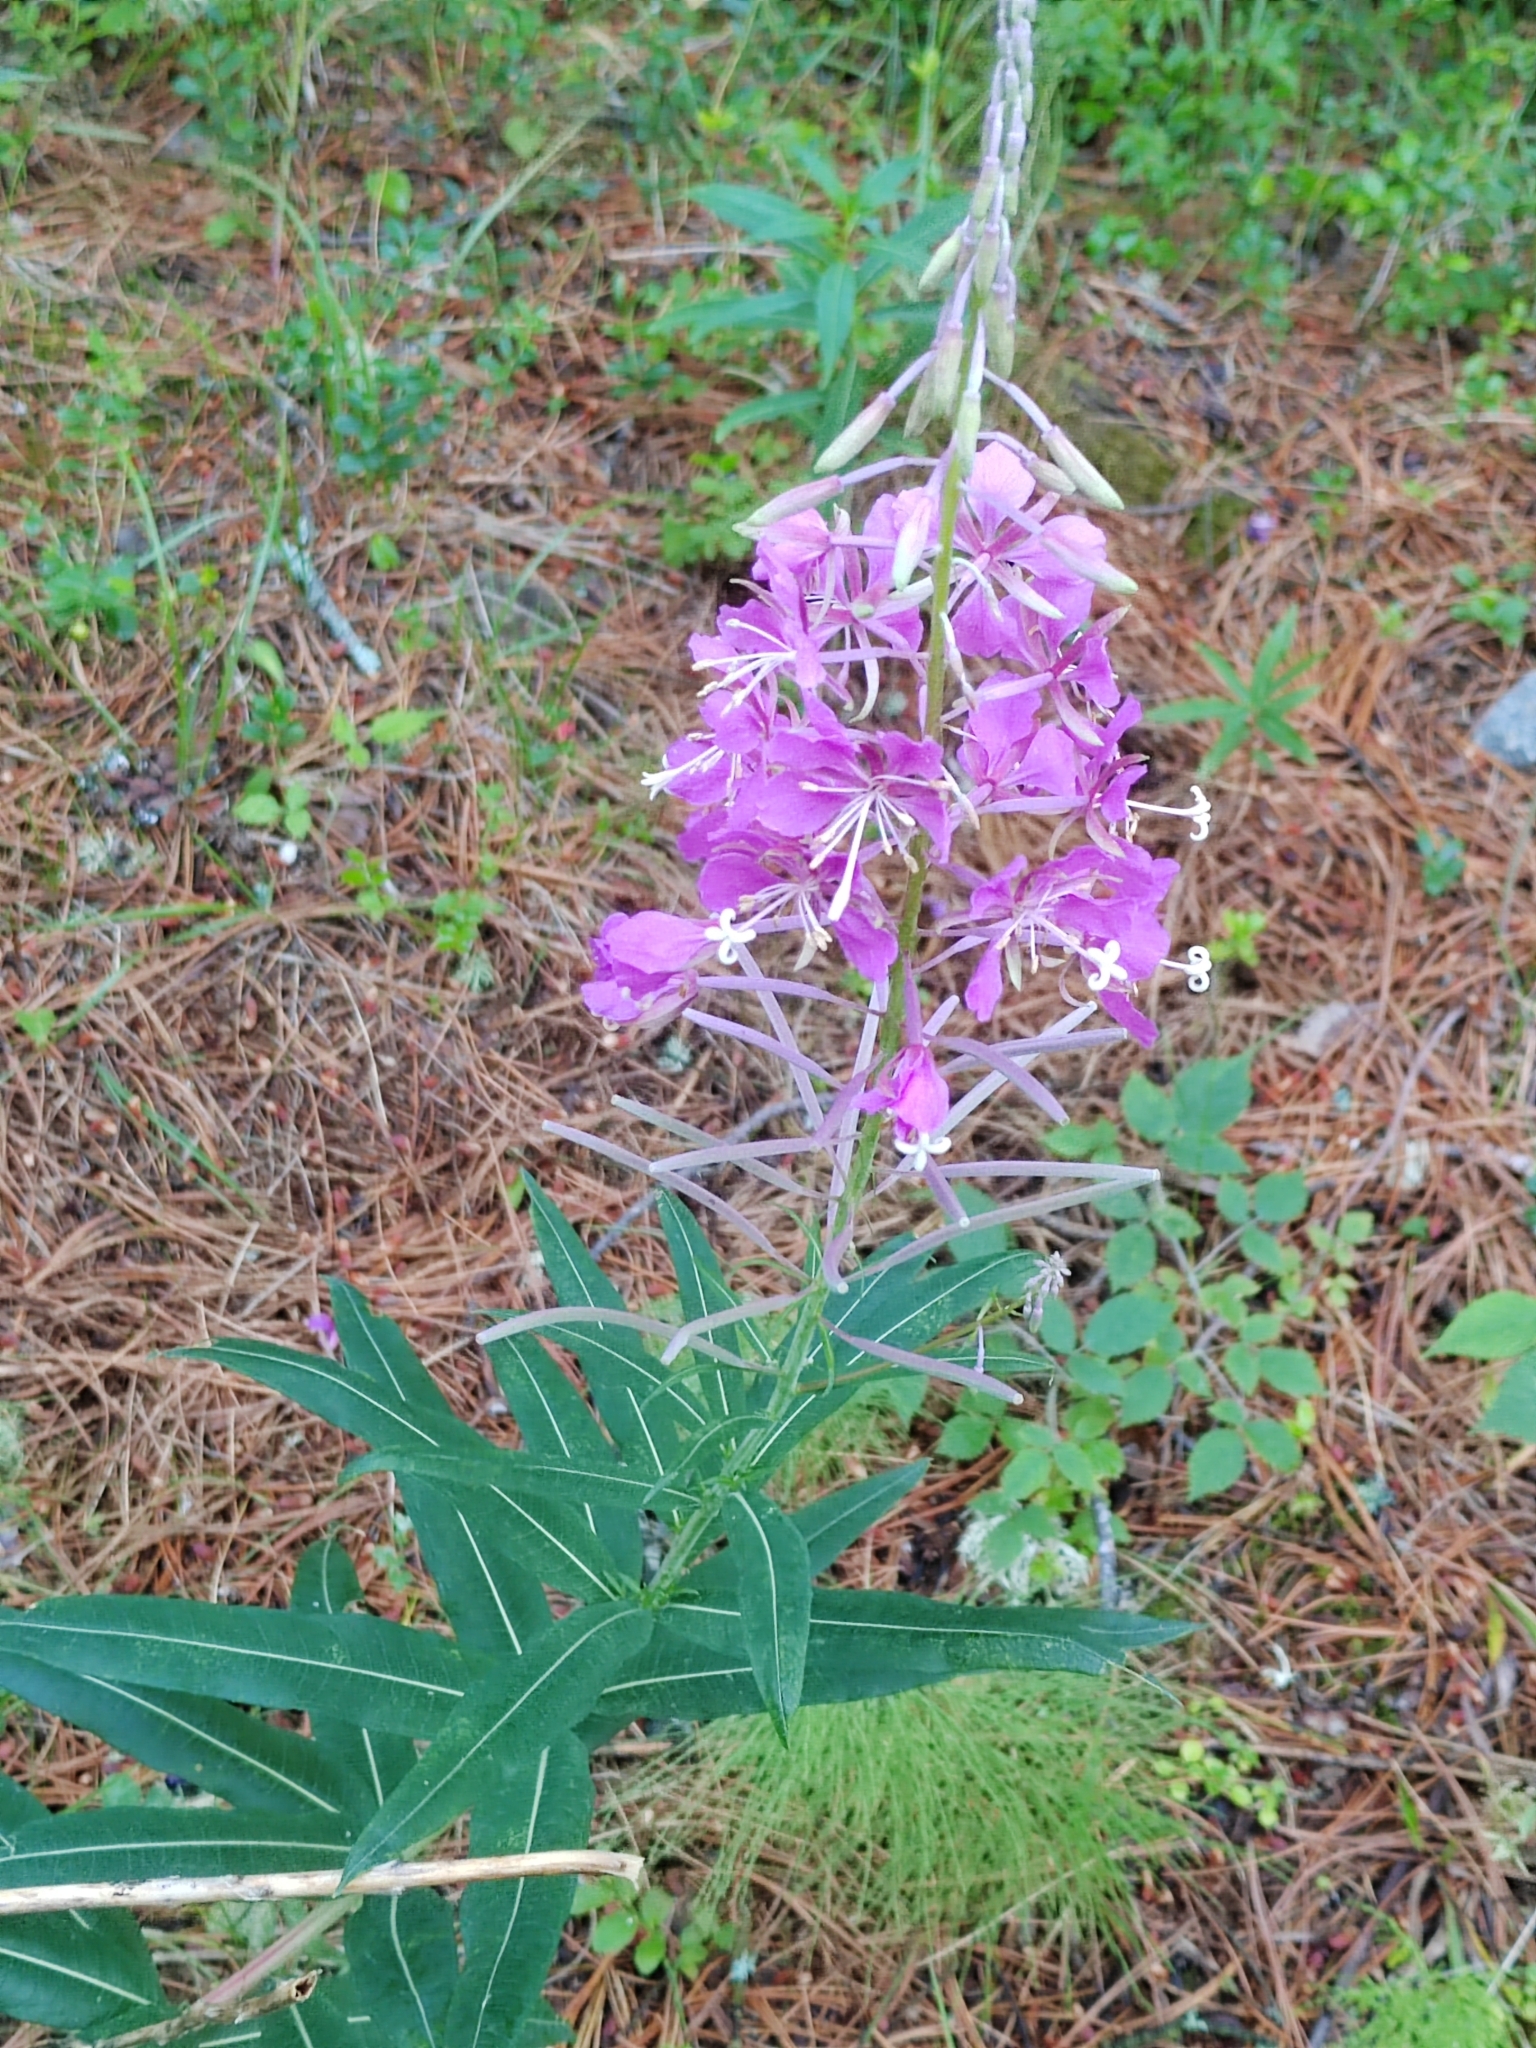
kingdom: Plantae
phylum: Tracheophyta
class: Magnoliopsida
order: Myrtales
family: Onagraceae
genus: Chamaenerion
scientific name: Chamaenerion angustifolium
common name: Fireweed
